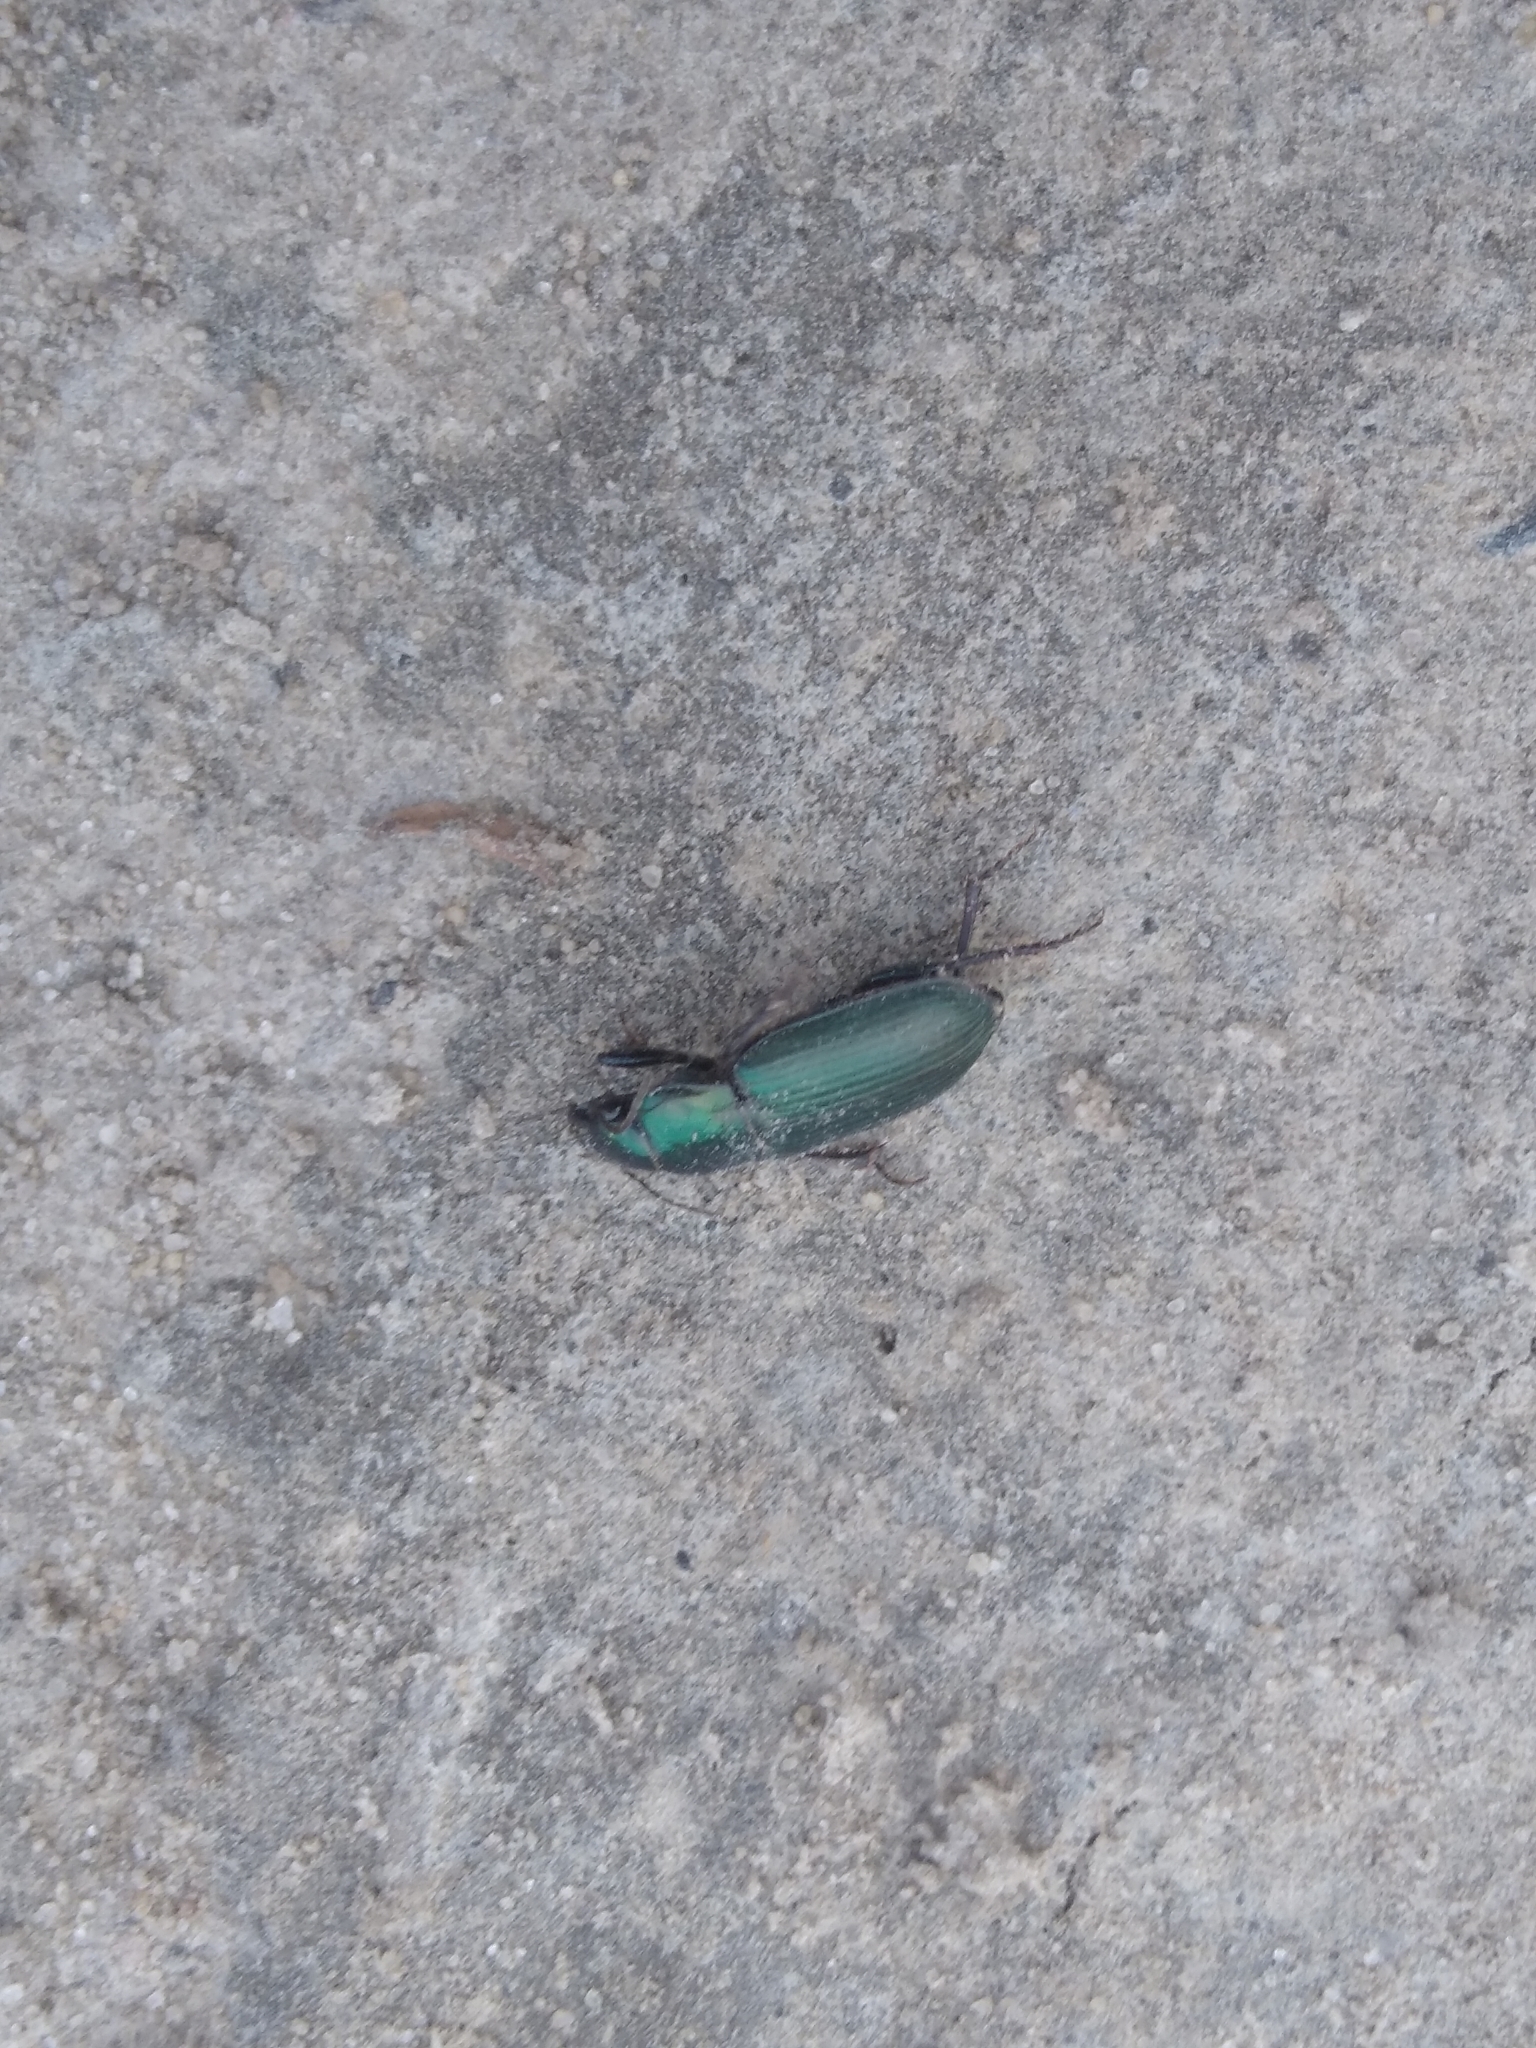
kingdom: Animalia
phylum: Arthropoda
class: Insecta
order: Coleoptera
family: Carabidae
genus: Harpalus
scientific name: Harpalus affinis
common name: Polychrome harp ground beetle
